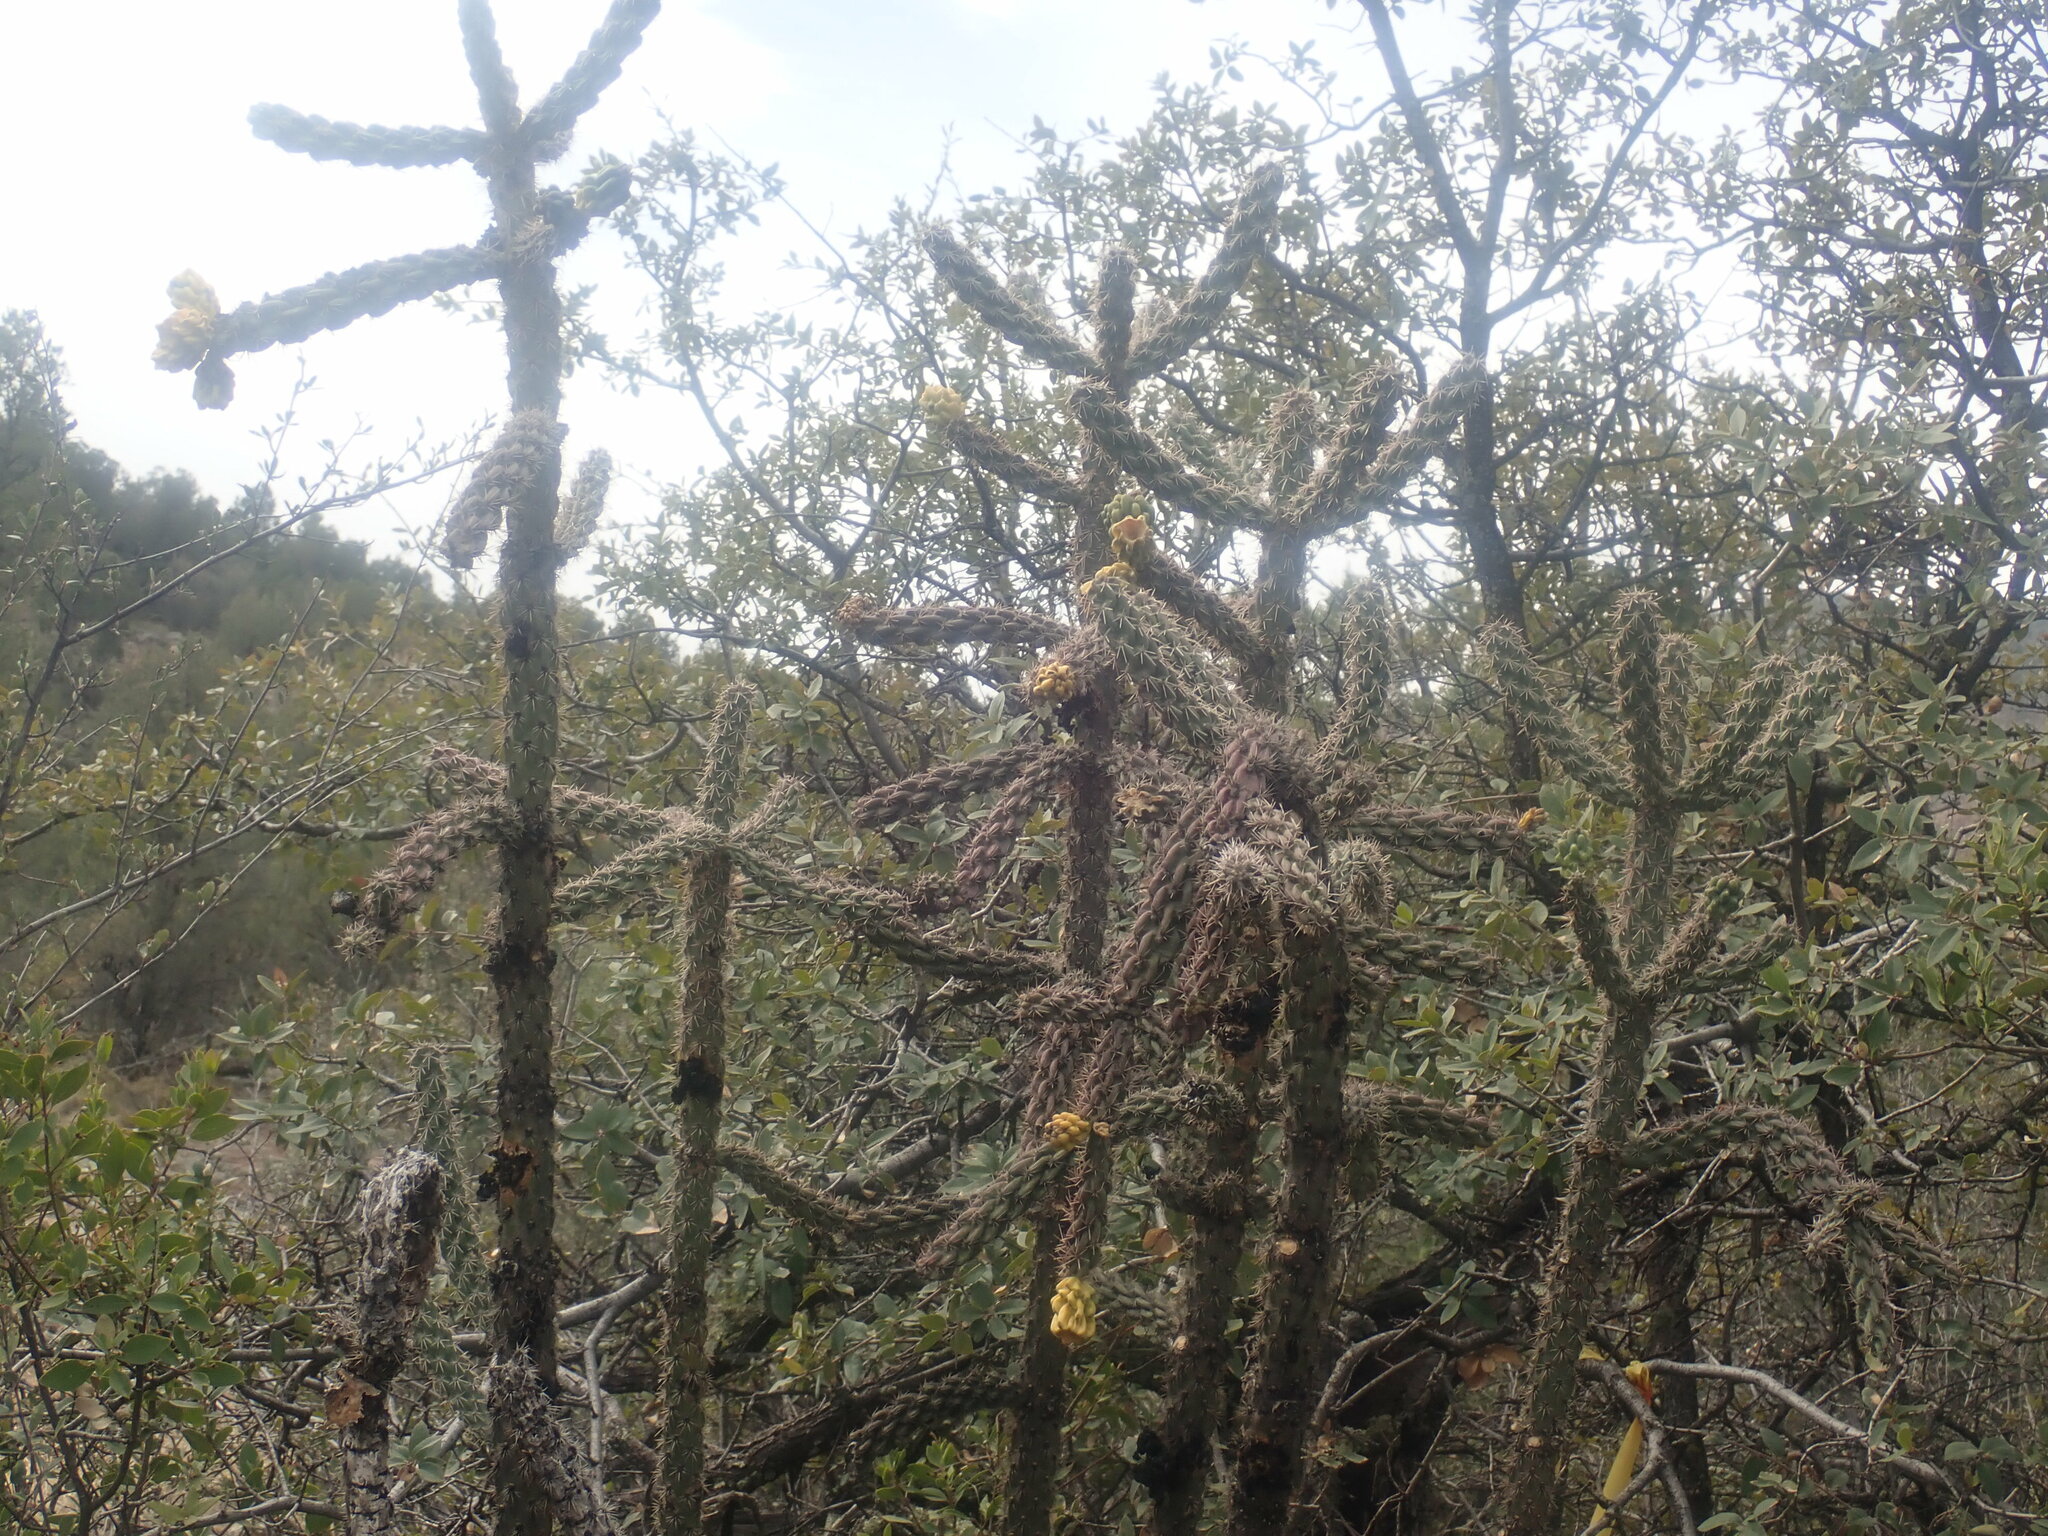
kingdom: Plantae
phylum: Tracheophyta
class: Magnoliopsida
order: Caryophyllales
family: Cactaceae
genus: Cylindropuntia
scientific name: Cylindropuntia imbricata
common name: Candelabrum cactus
